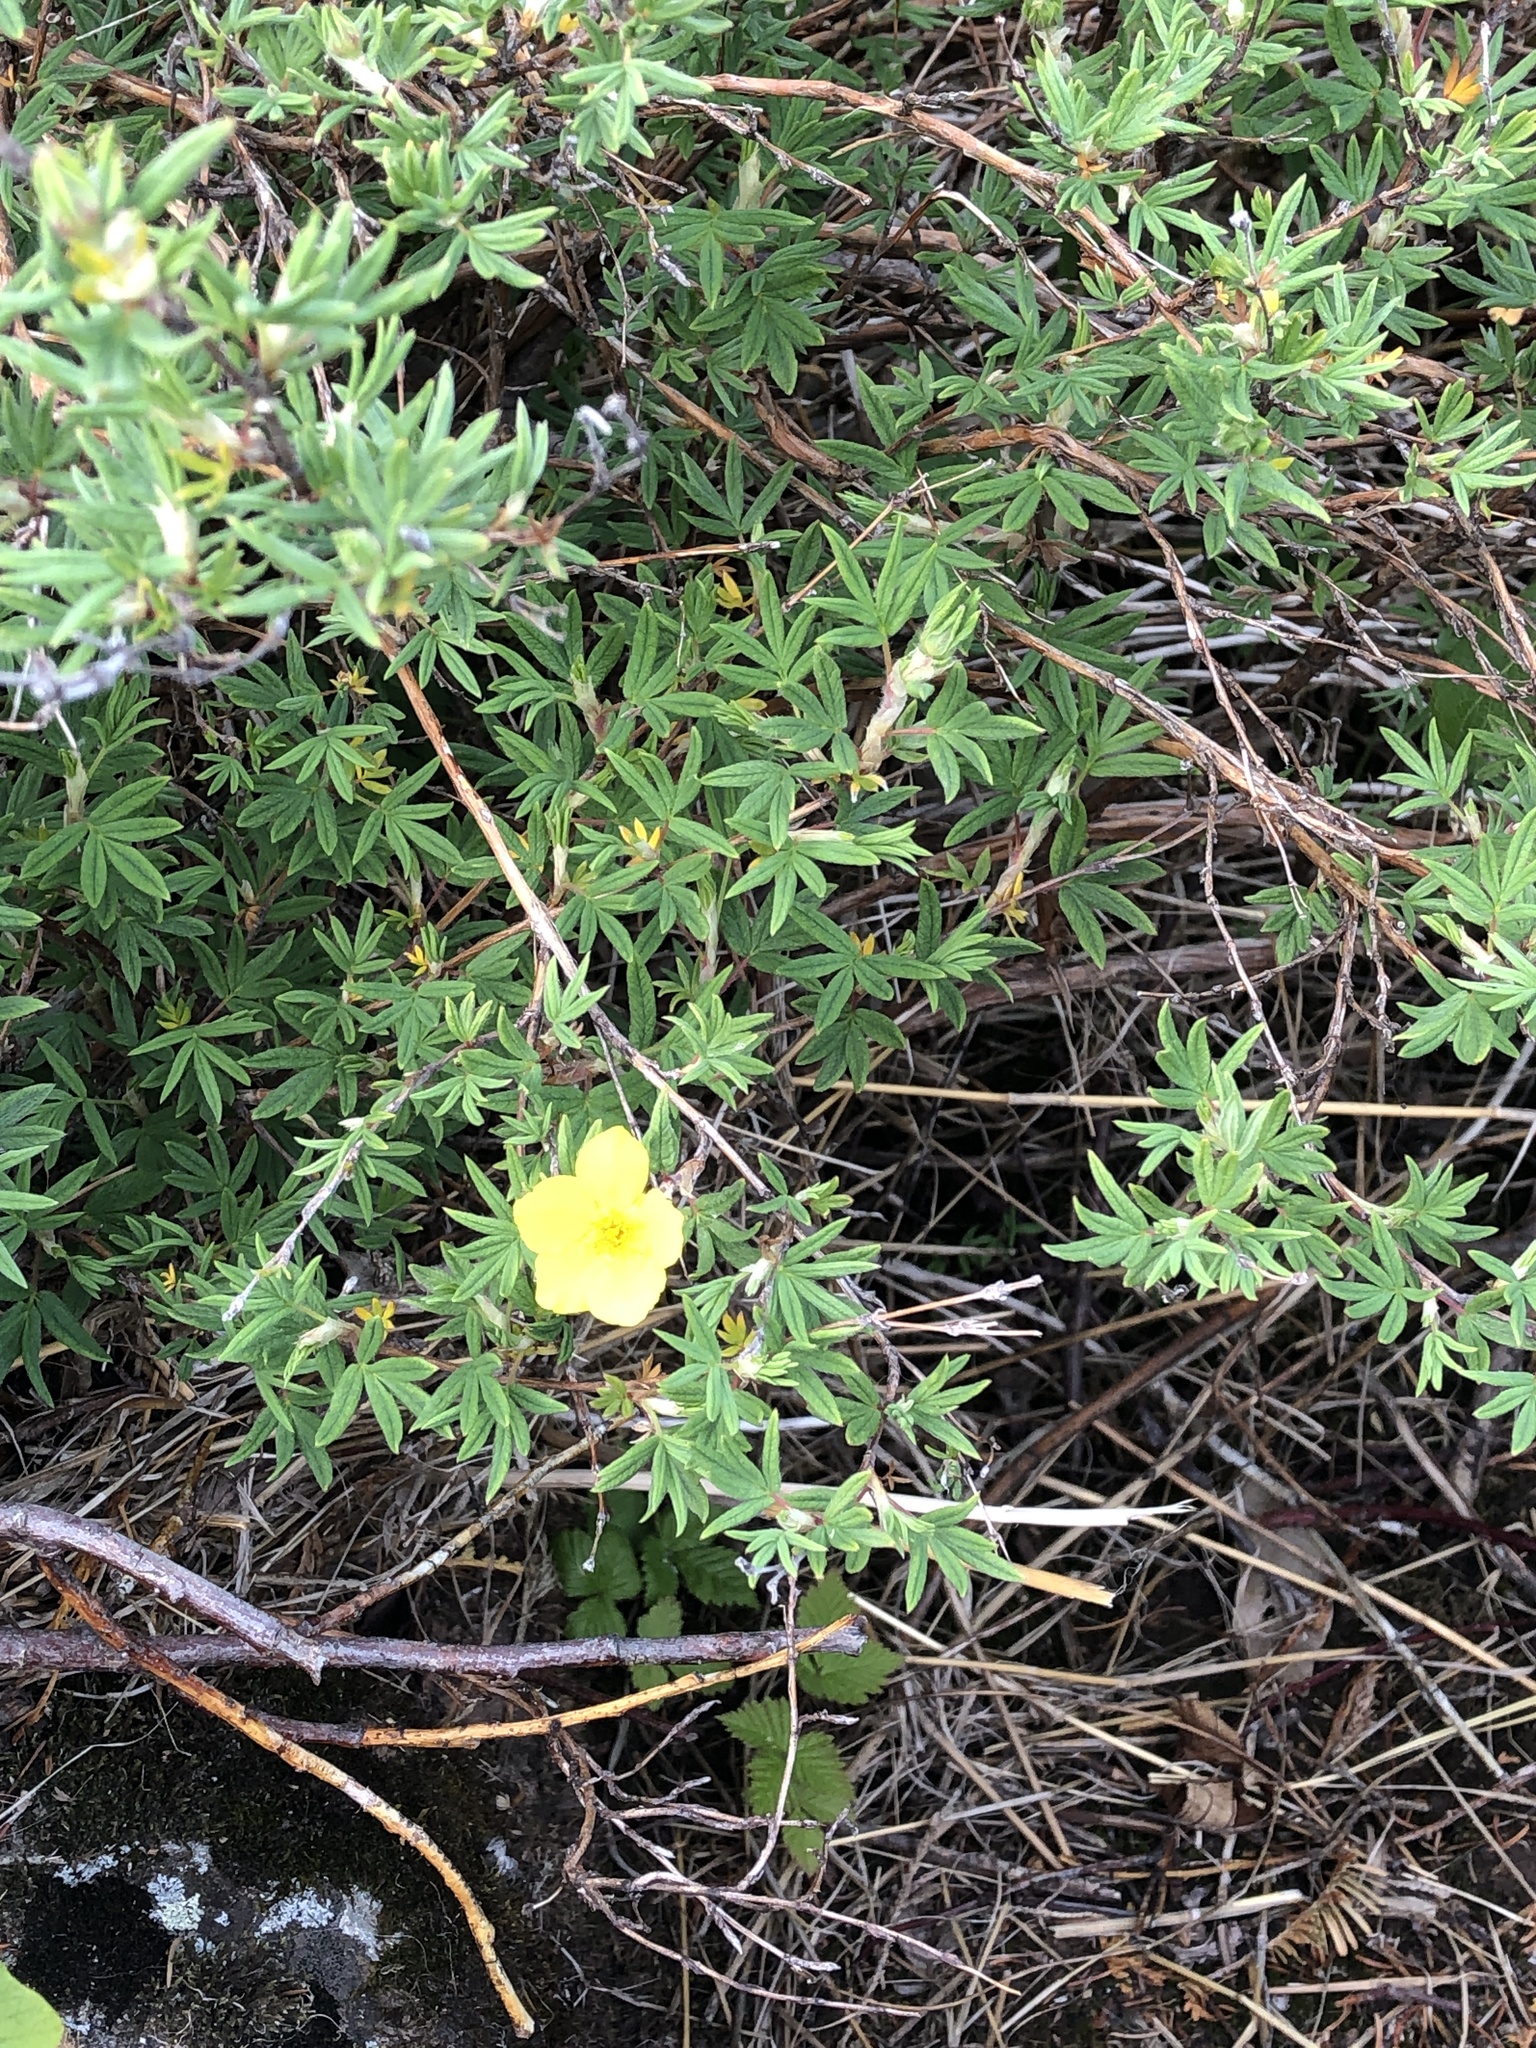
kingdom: Plantae
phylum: Tracheophyta
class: Magnoliopsida
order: Rosales
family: Rosaceae
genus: Dasiphora
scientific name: Dasiphora fruticosa
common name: Shrubby cinquefoil
